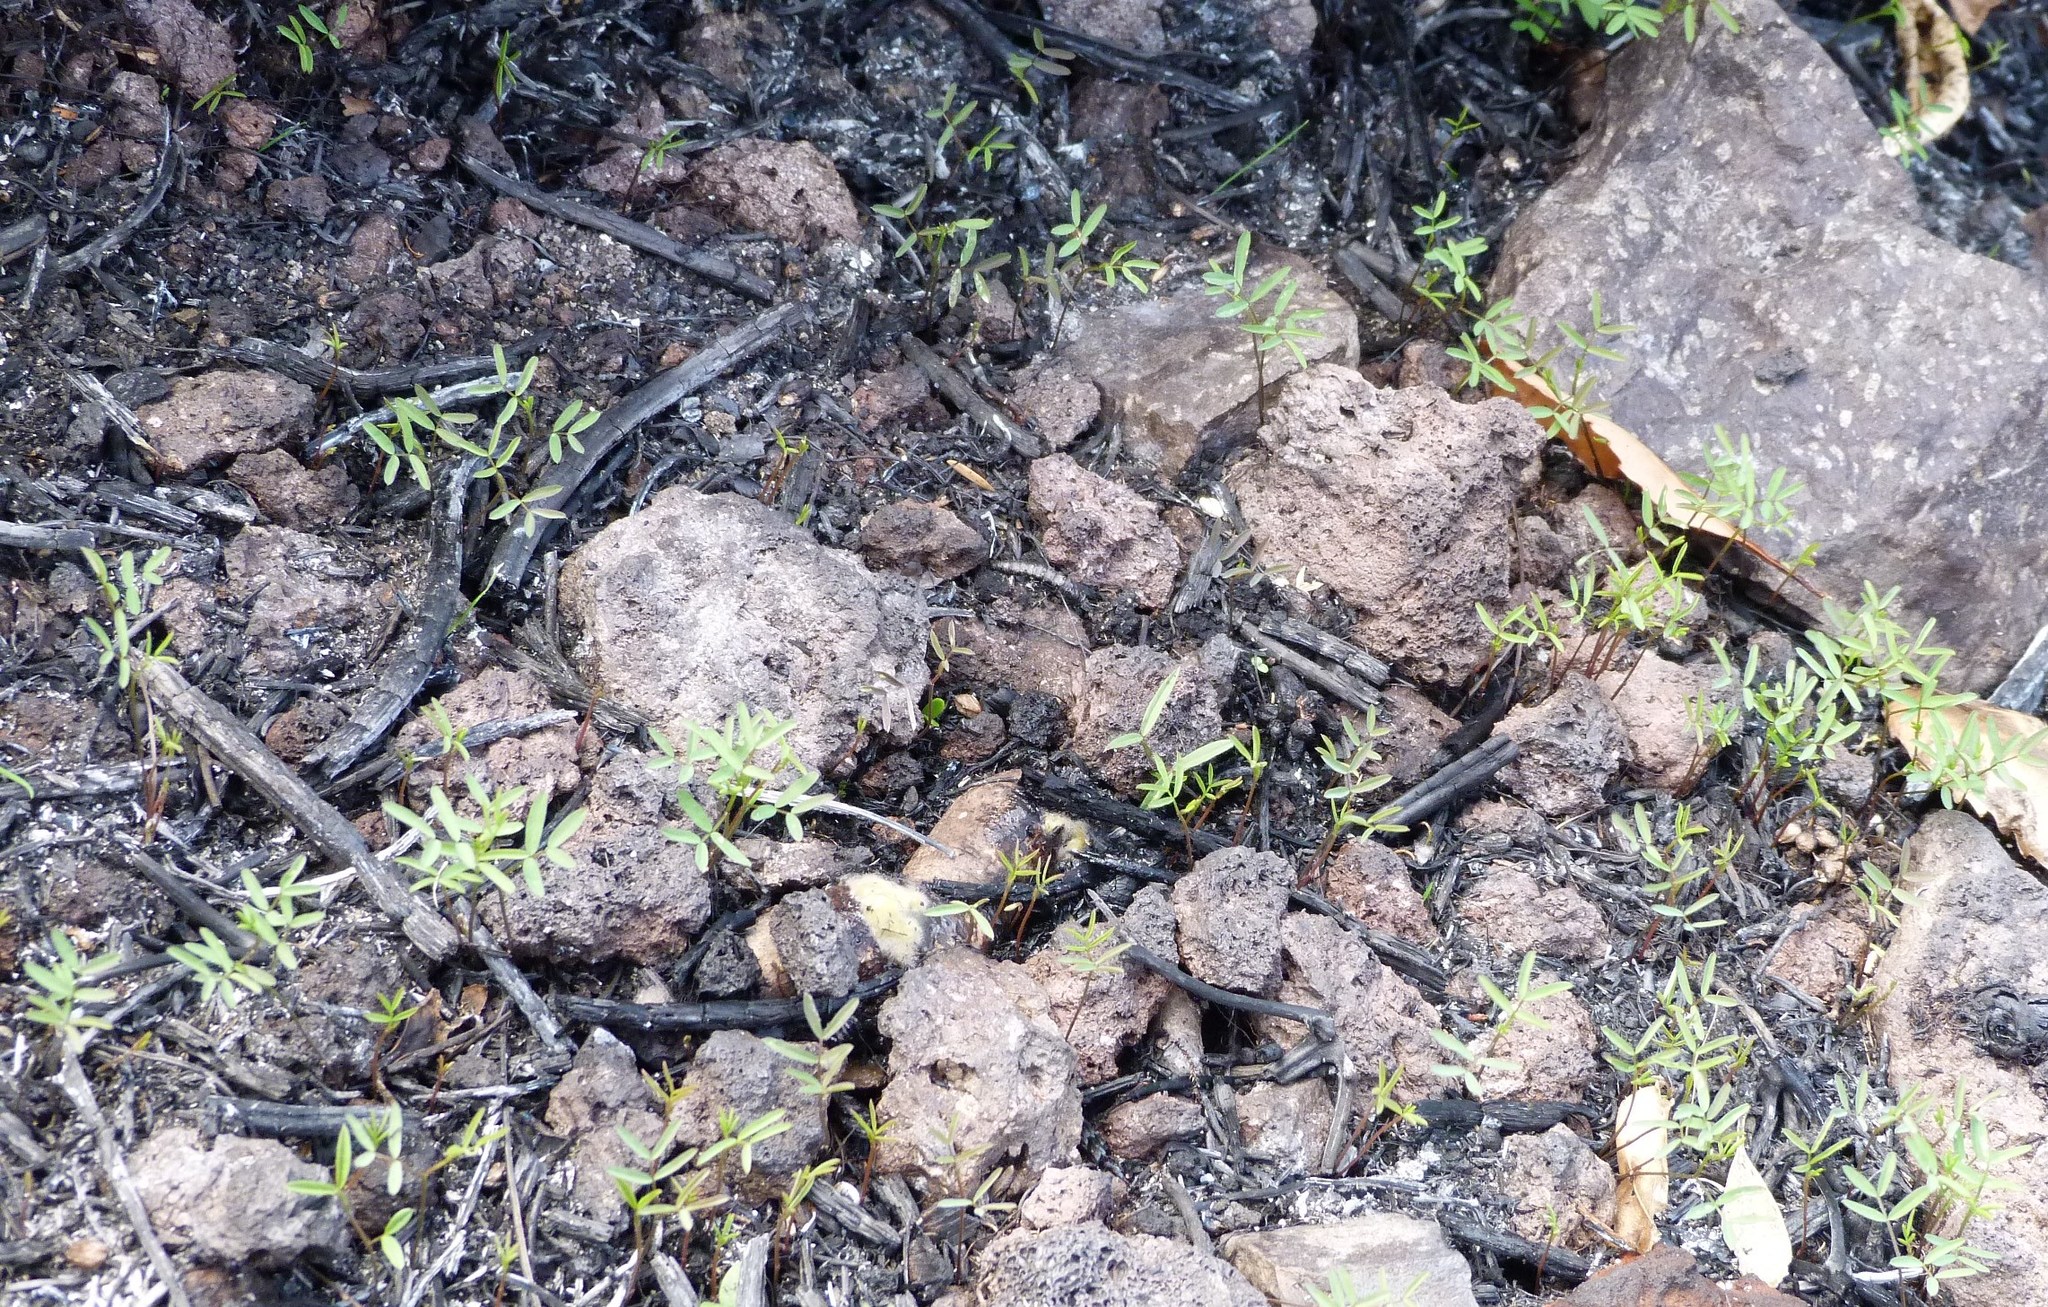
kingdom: Plantae
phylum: Tracheophyta
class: Magnoliopsida
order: Fabales
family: Fabaceae
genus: Vicia
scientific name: Vicia sativa
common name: Garden vetch
